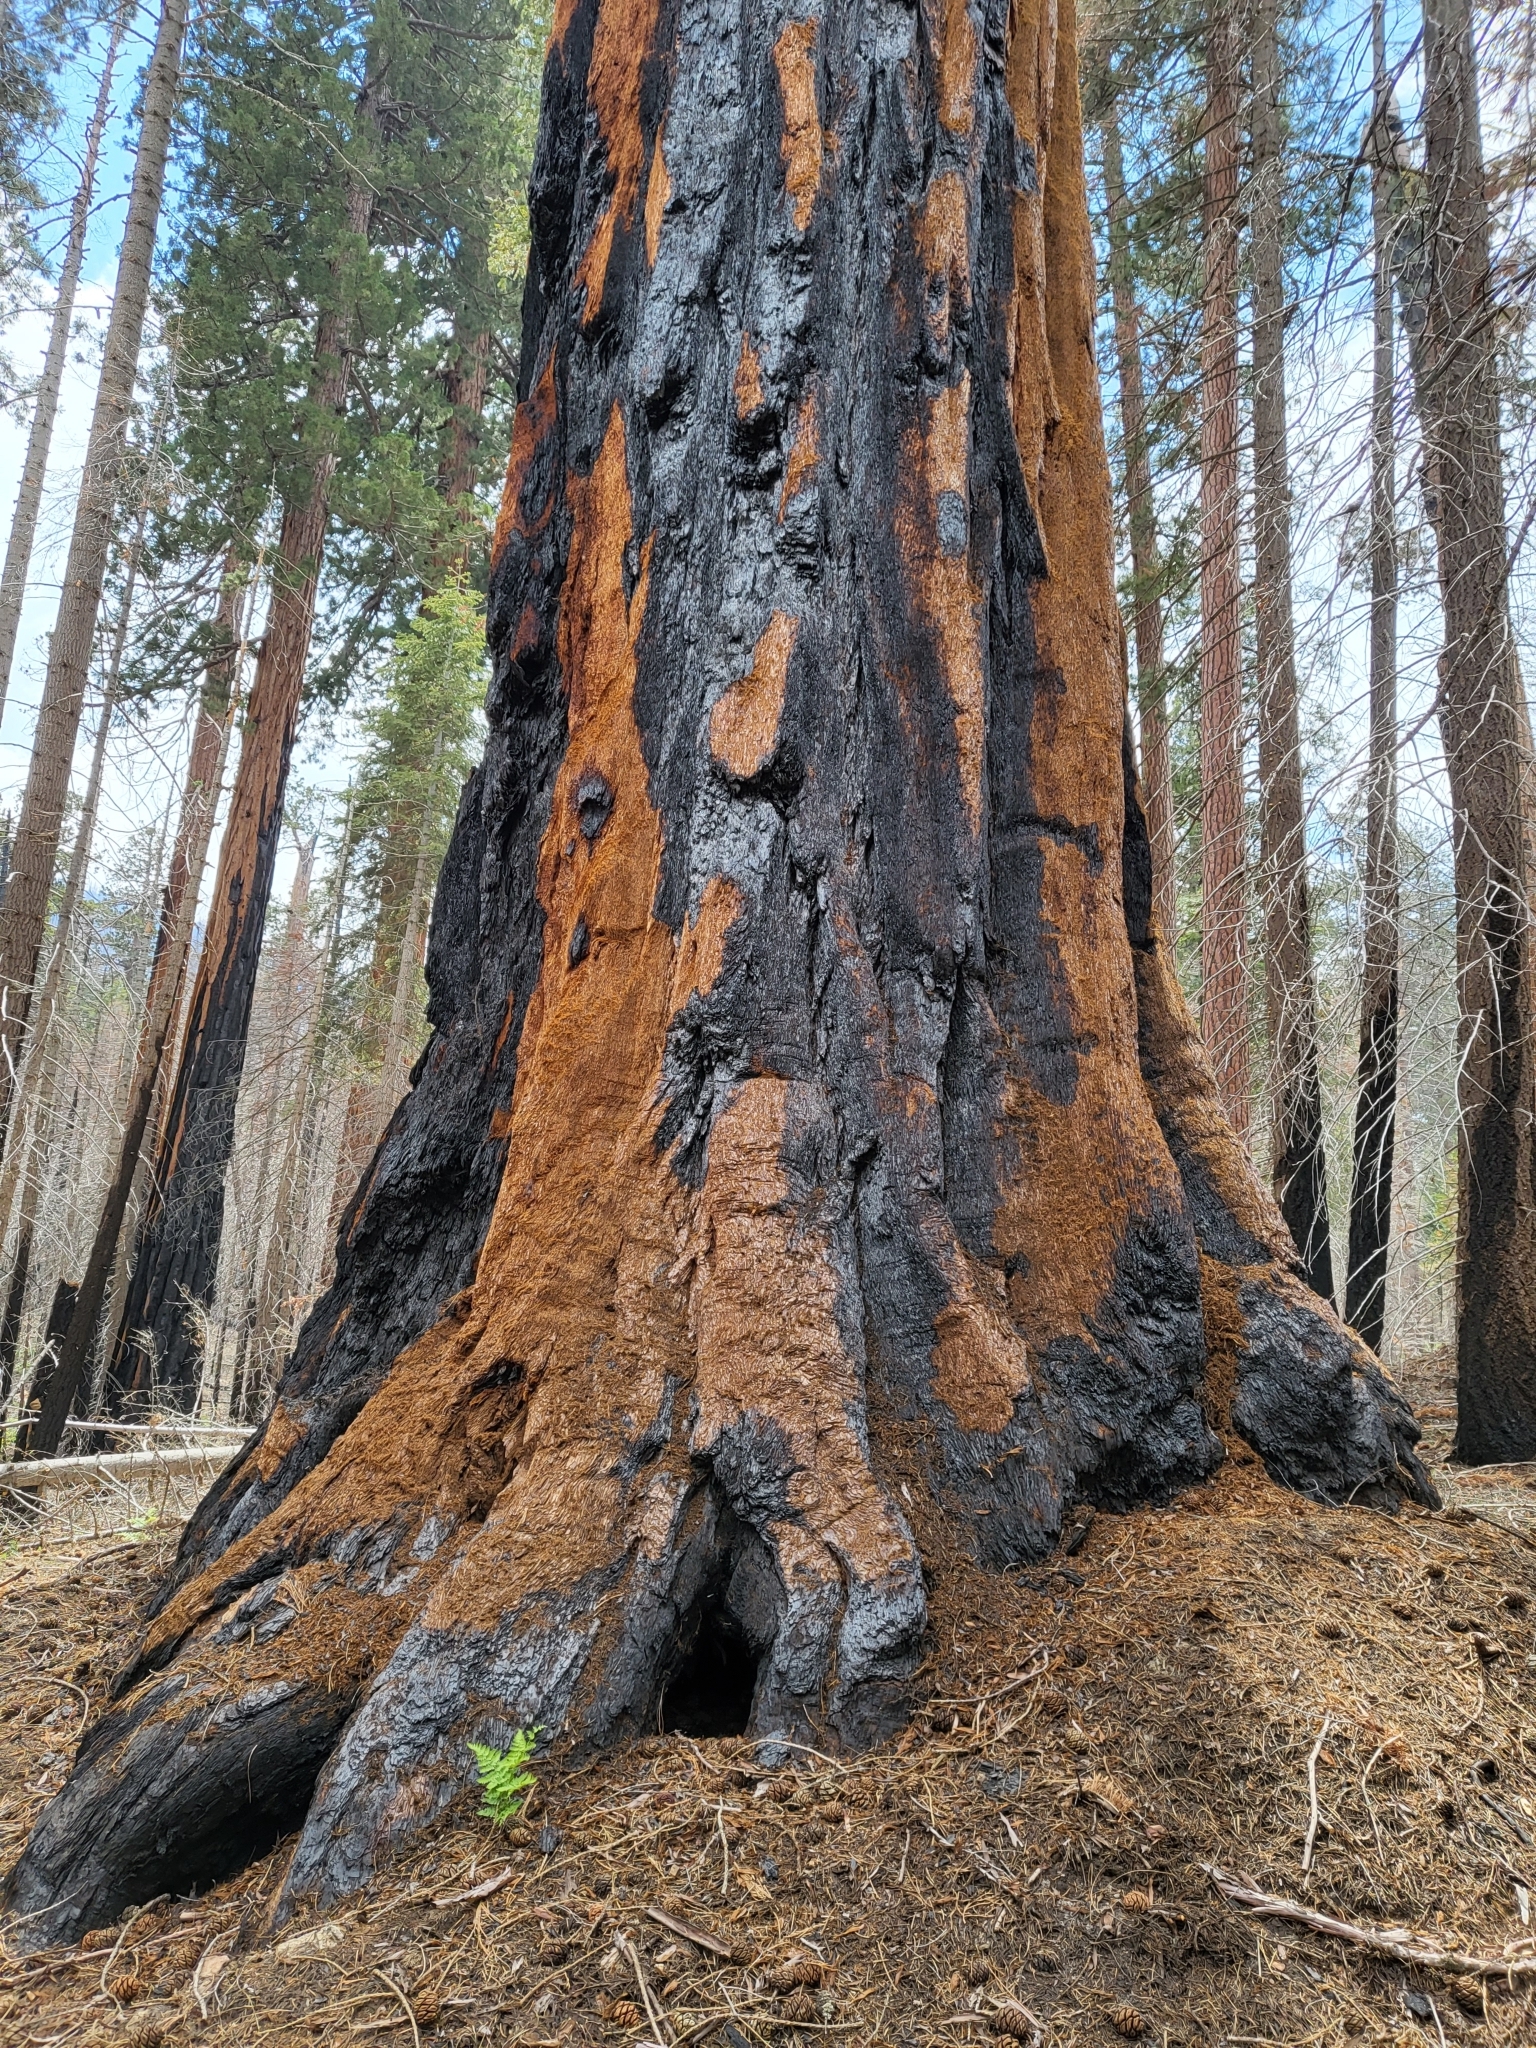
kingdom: Plantae
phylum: Tracheophyta
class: Pinopsida
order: Pinales
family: Cupressaceae
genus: Sequoiadendron
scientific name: Sequoiadendron giganteum
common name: Wellingtonia
